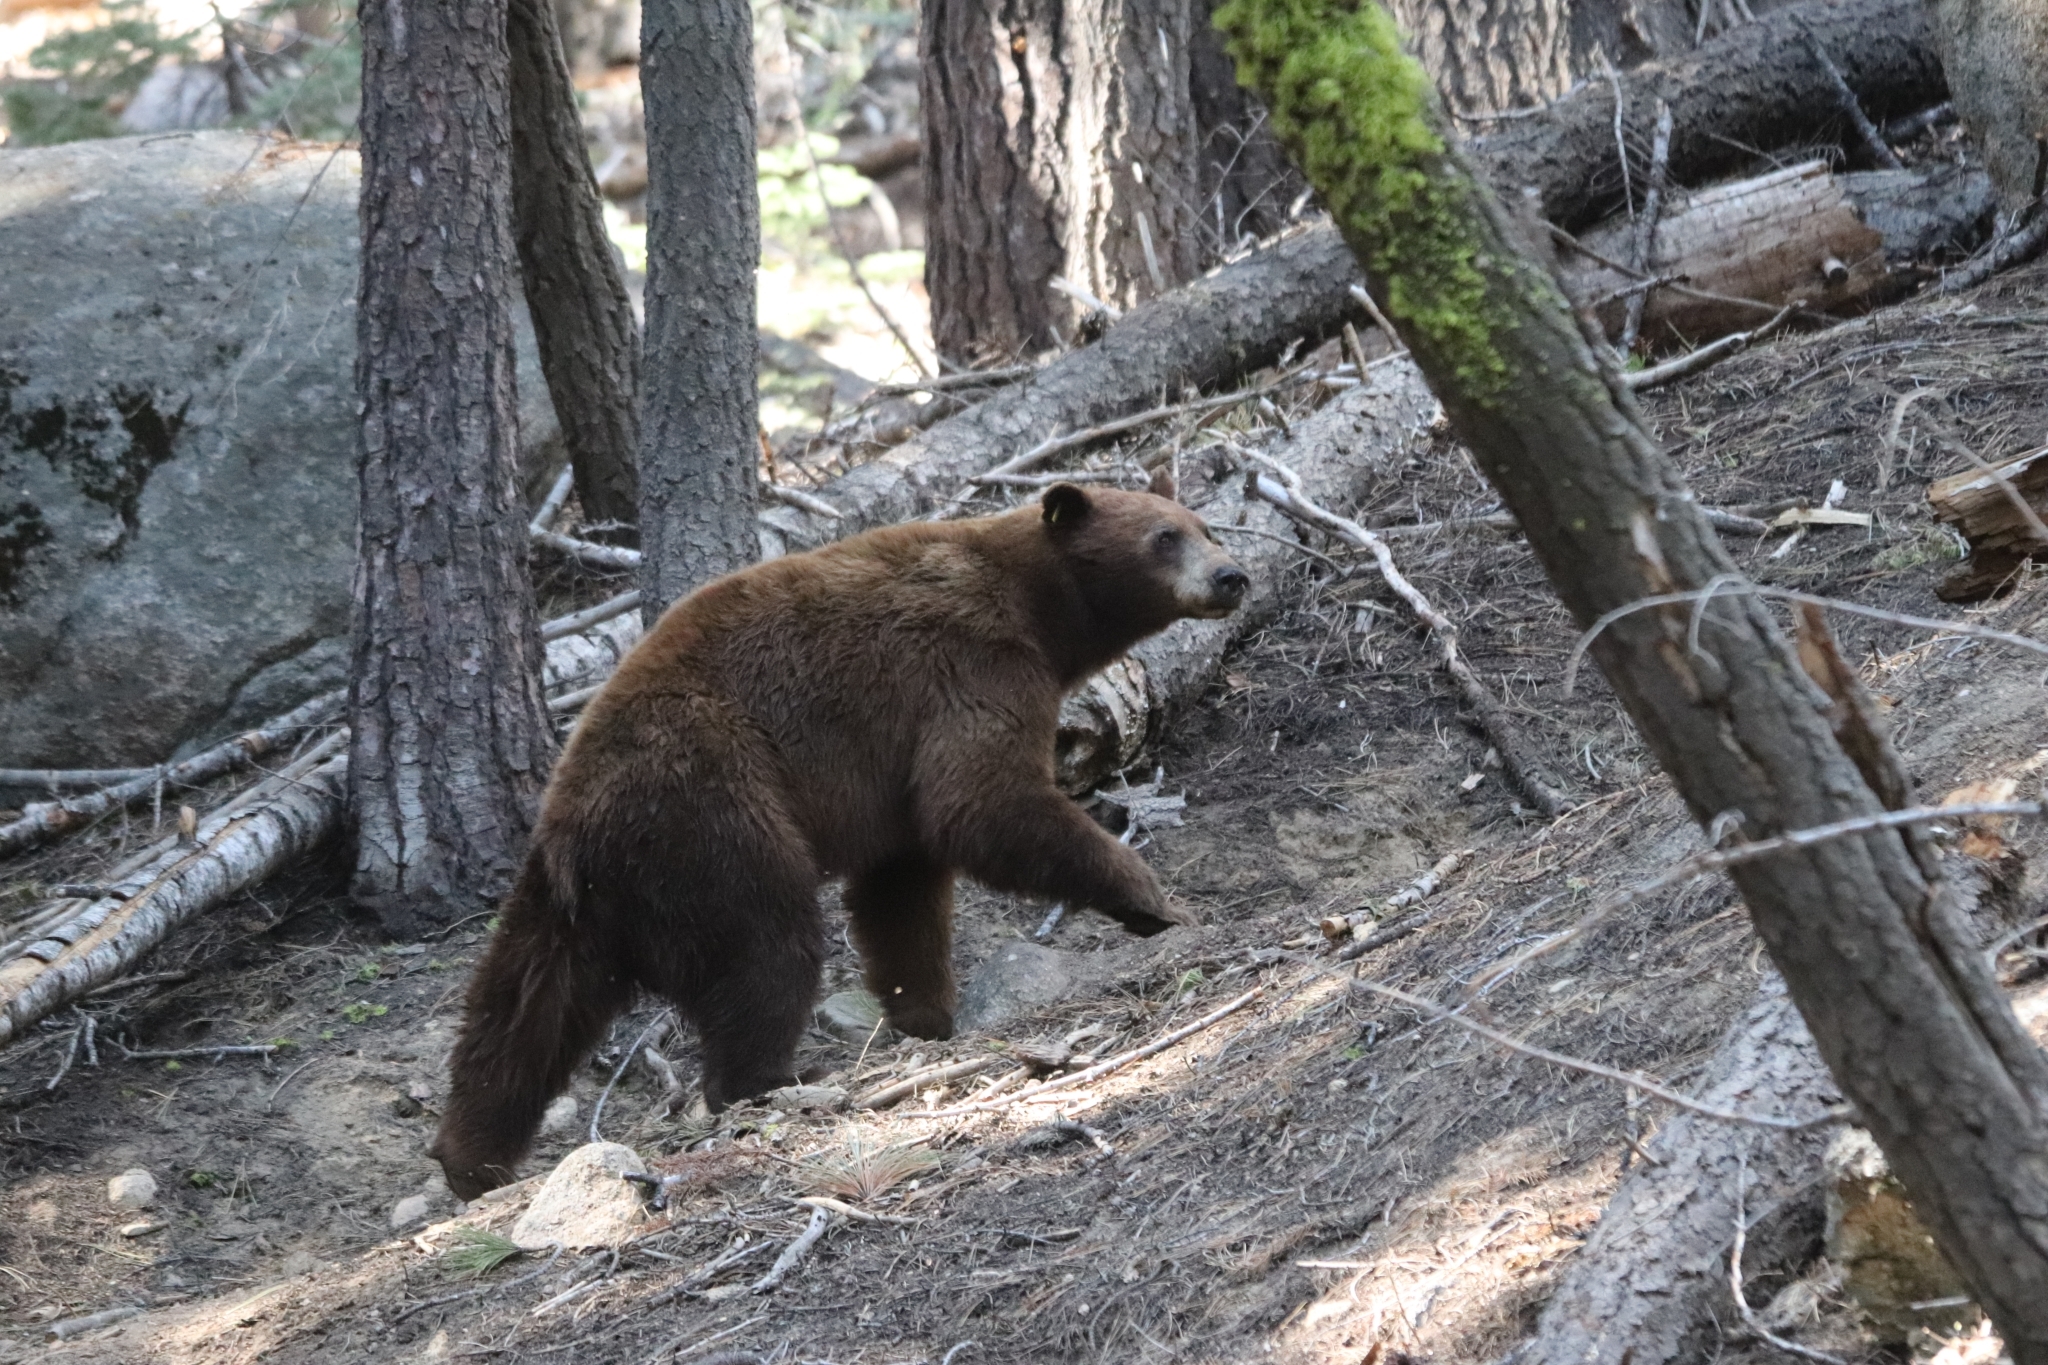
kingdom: Animalia
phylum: Chordata
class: Mammalia
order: Carnivora
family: Ursidae
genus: Ursus
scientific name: Ursus americanus
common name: American black bear
